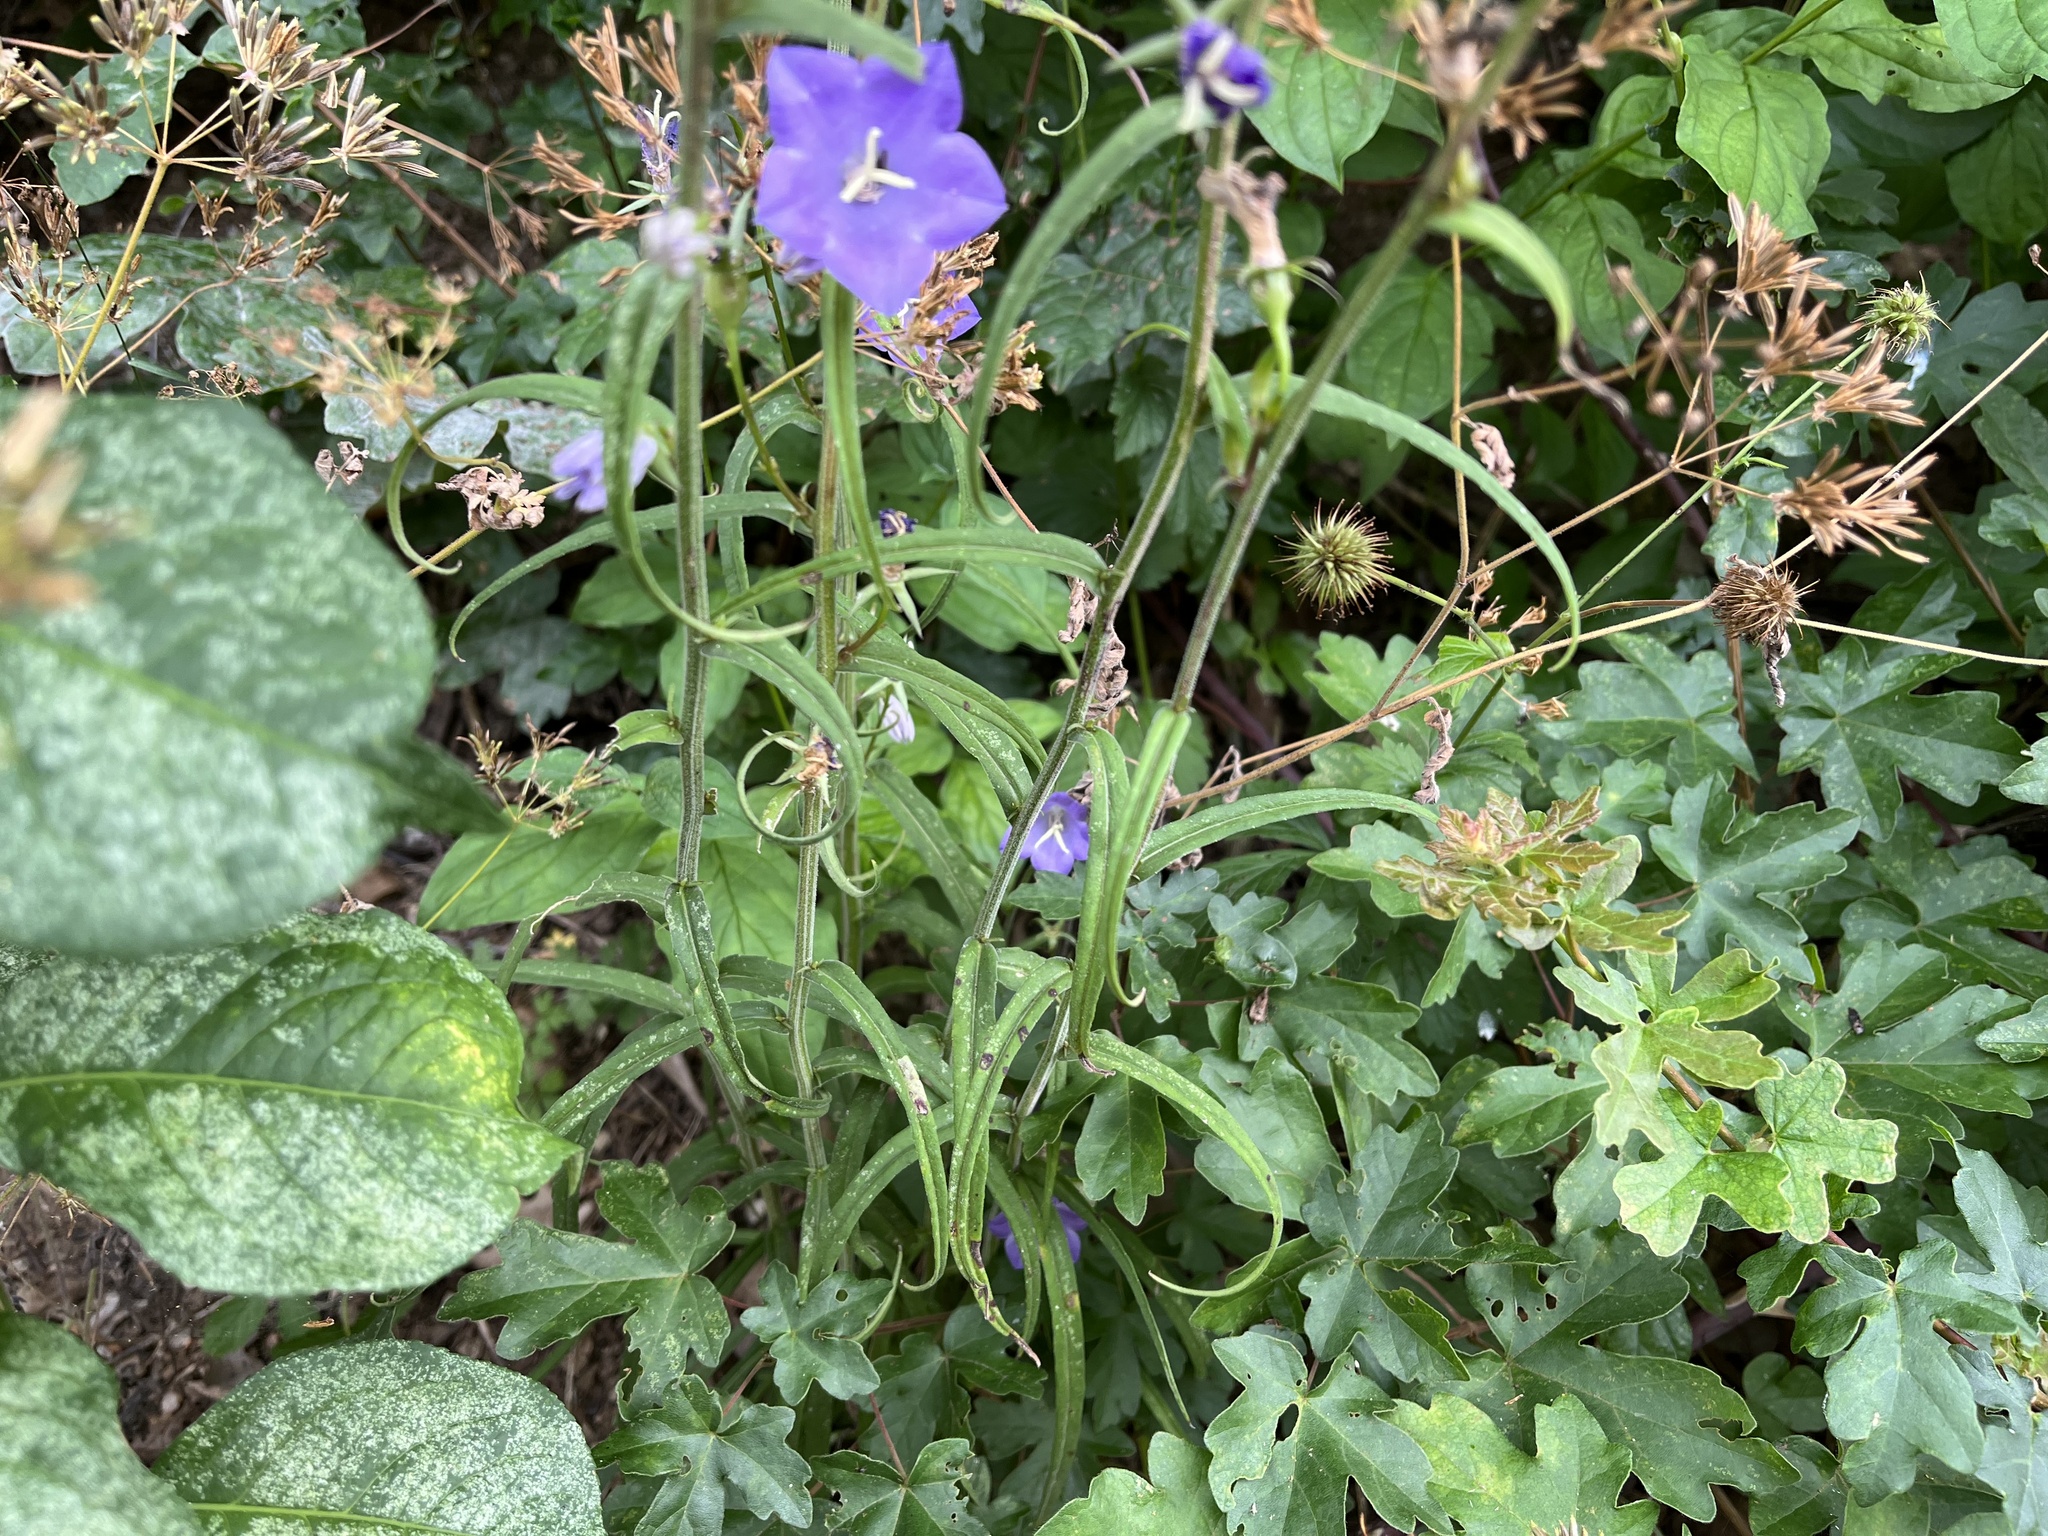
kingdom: Plantae
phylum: Tracheophyta
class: Magnoliopsida
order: Asterales
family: Campanulaceae
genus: Campanula
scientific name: Campanula persicifolia
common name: Peach-leaved bellflower
